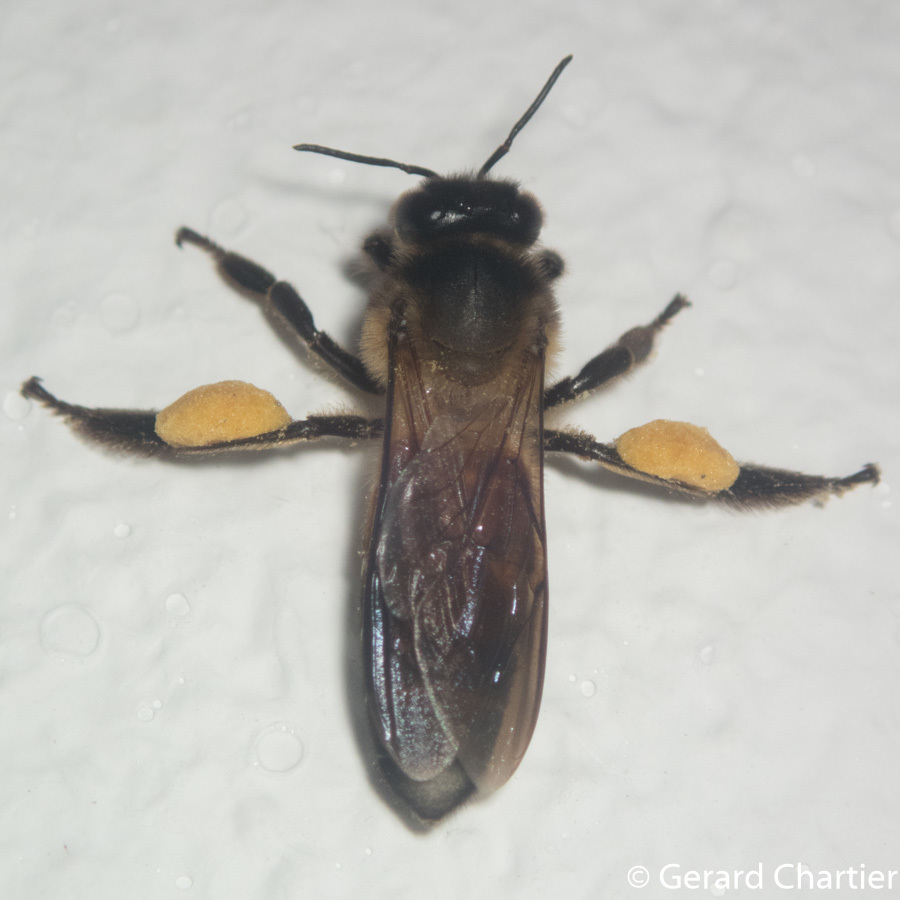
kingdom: Animalia
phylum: Arthropoda
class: Insecta
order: Hymenoptera
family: Apidae
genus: Apis
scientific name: Apis dorsata
